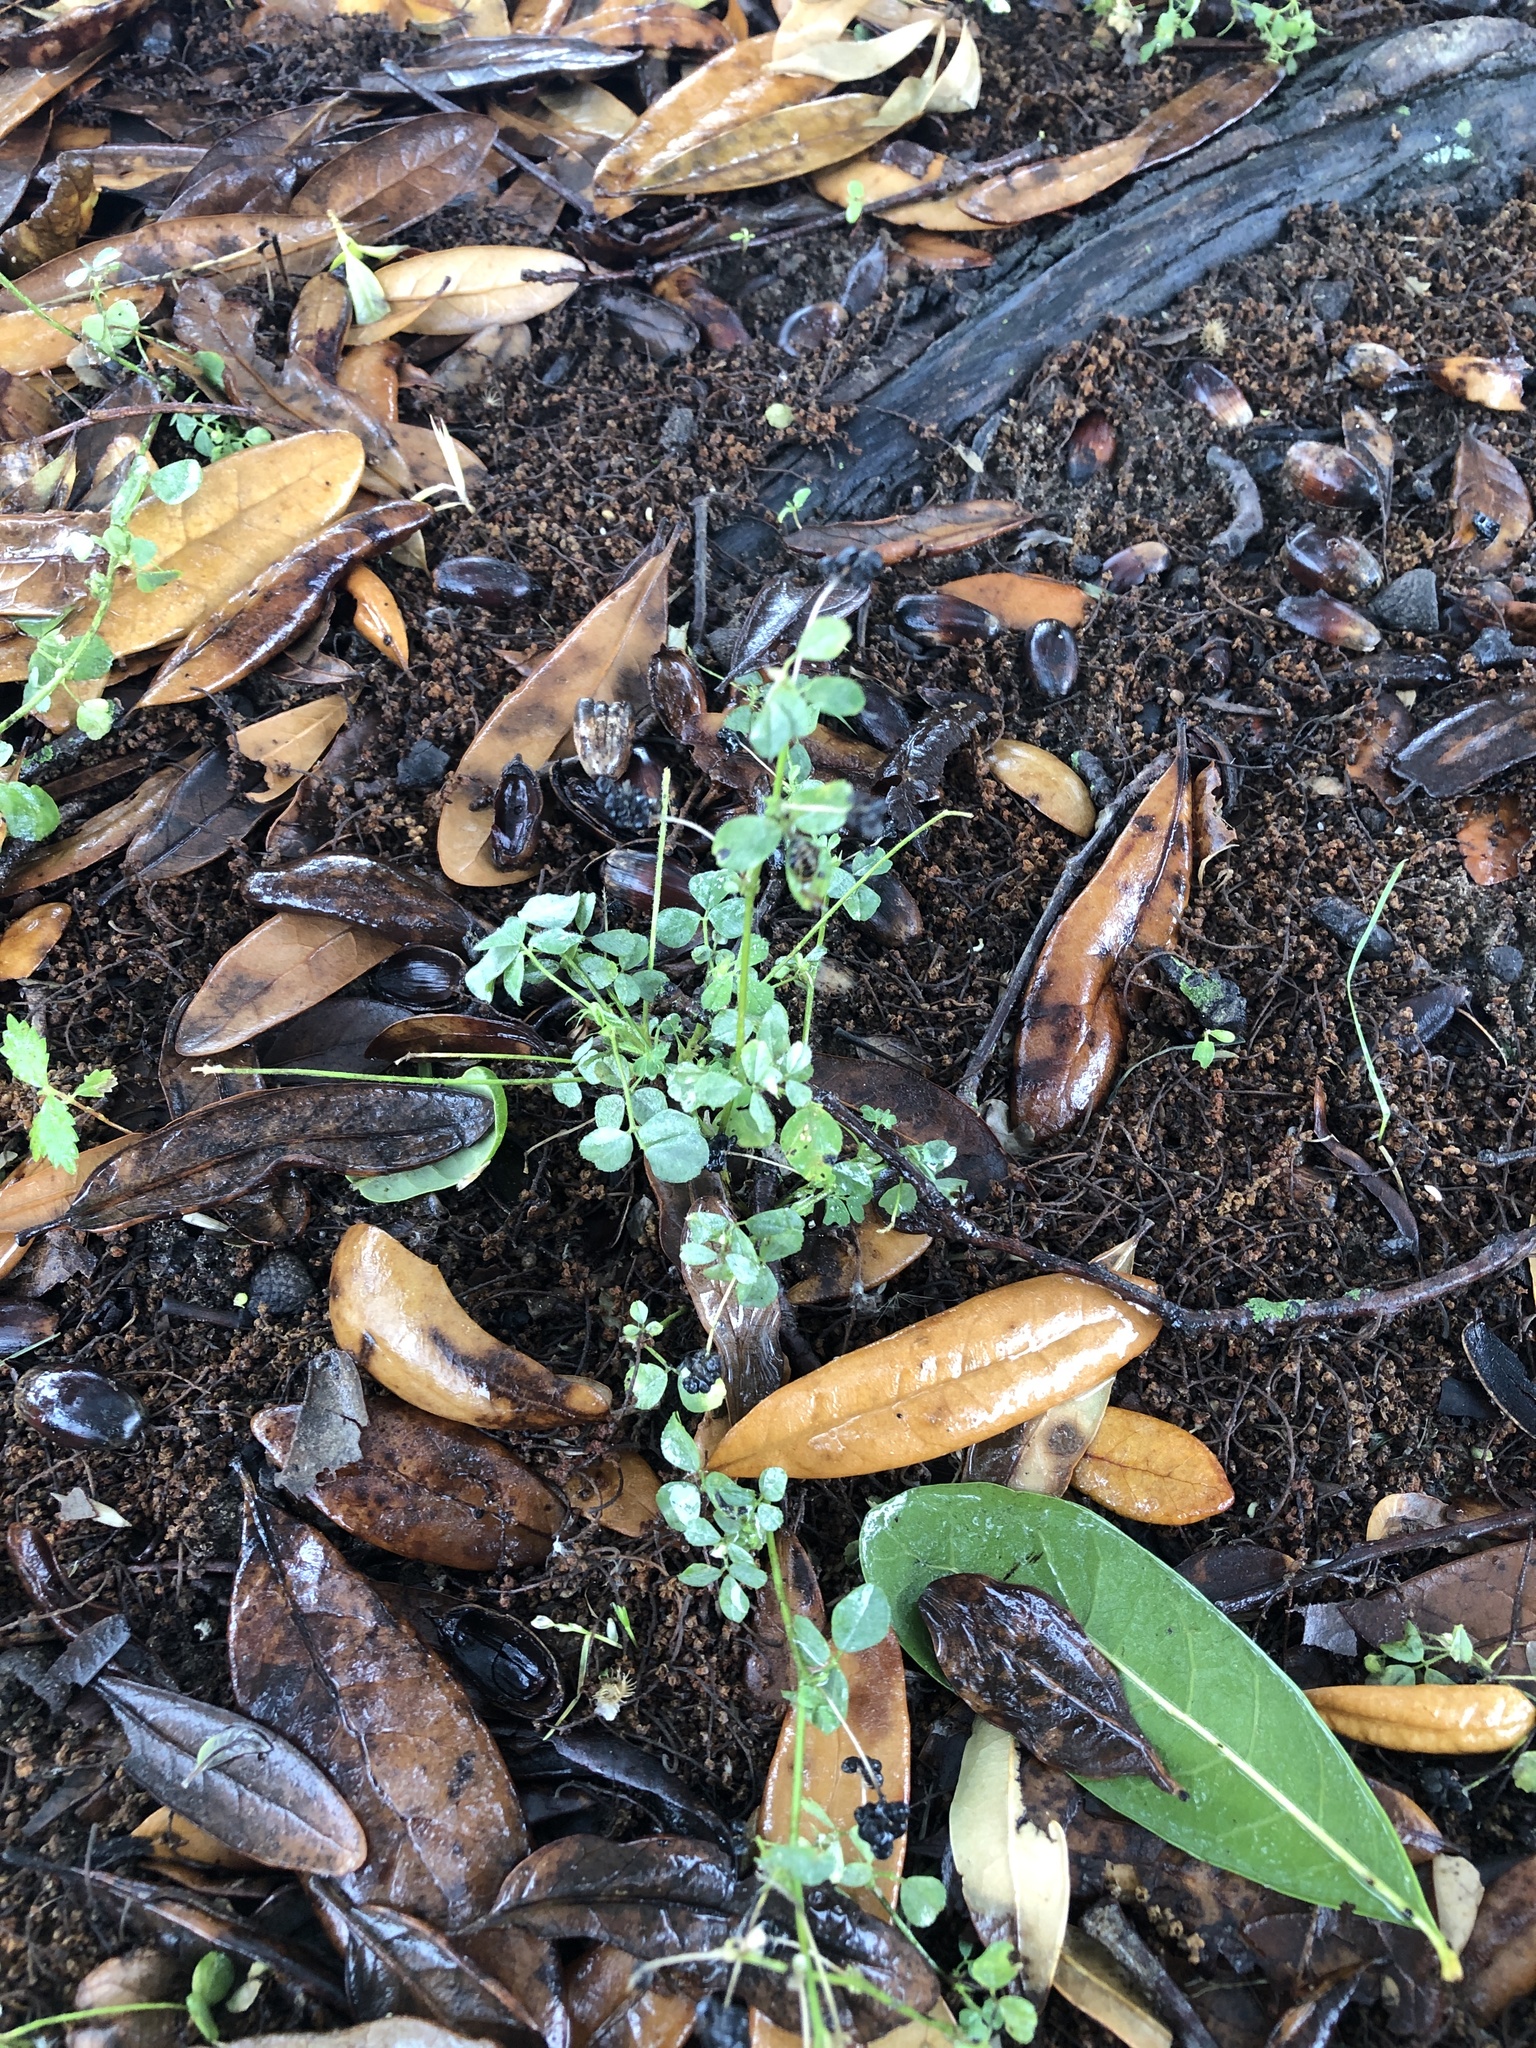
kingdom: Plantae
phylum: Tracheophyta
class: Magnoliopsida
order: Fabales
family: Fabaceae
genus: Medicago
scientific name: Medicago lupulina
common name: Black medick
